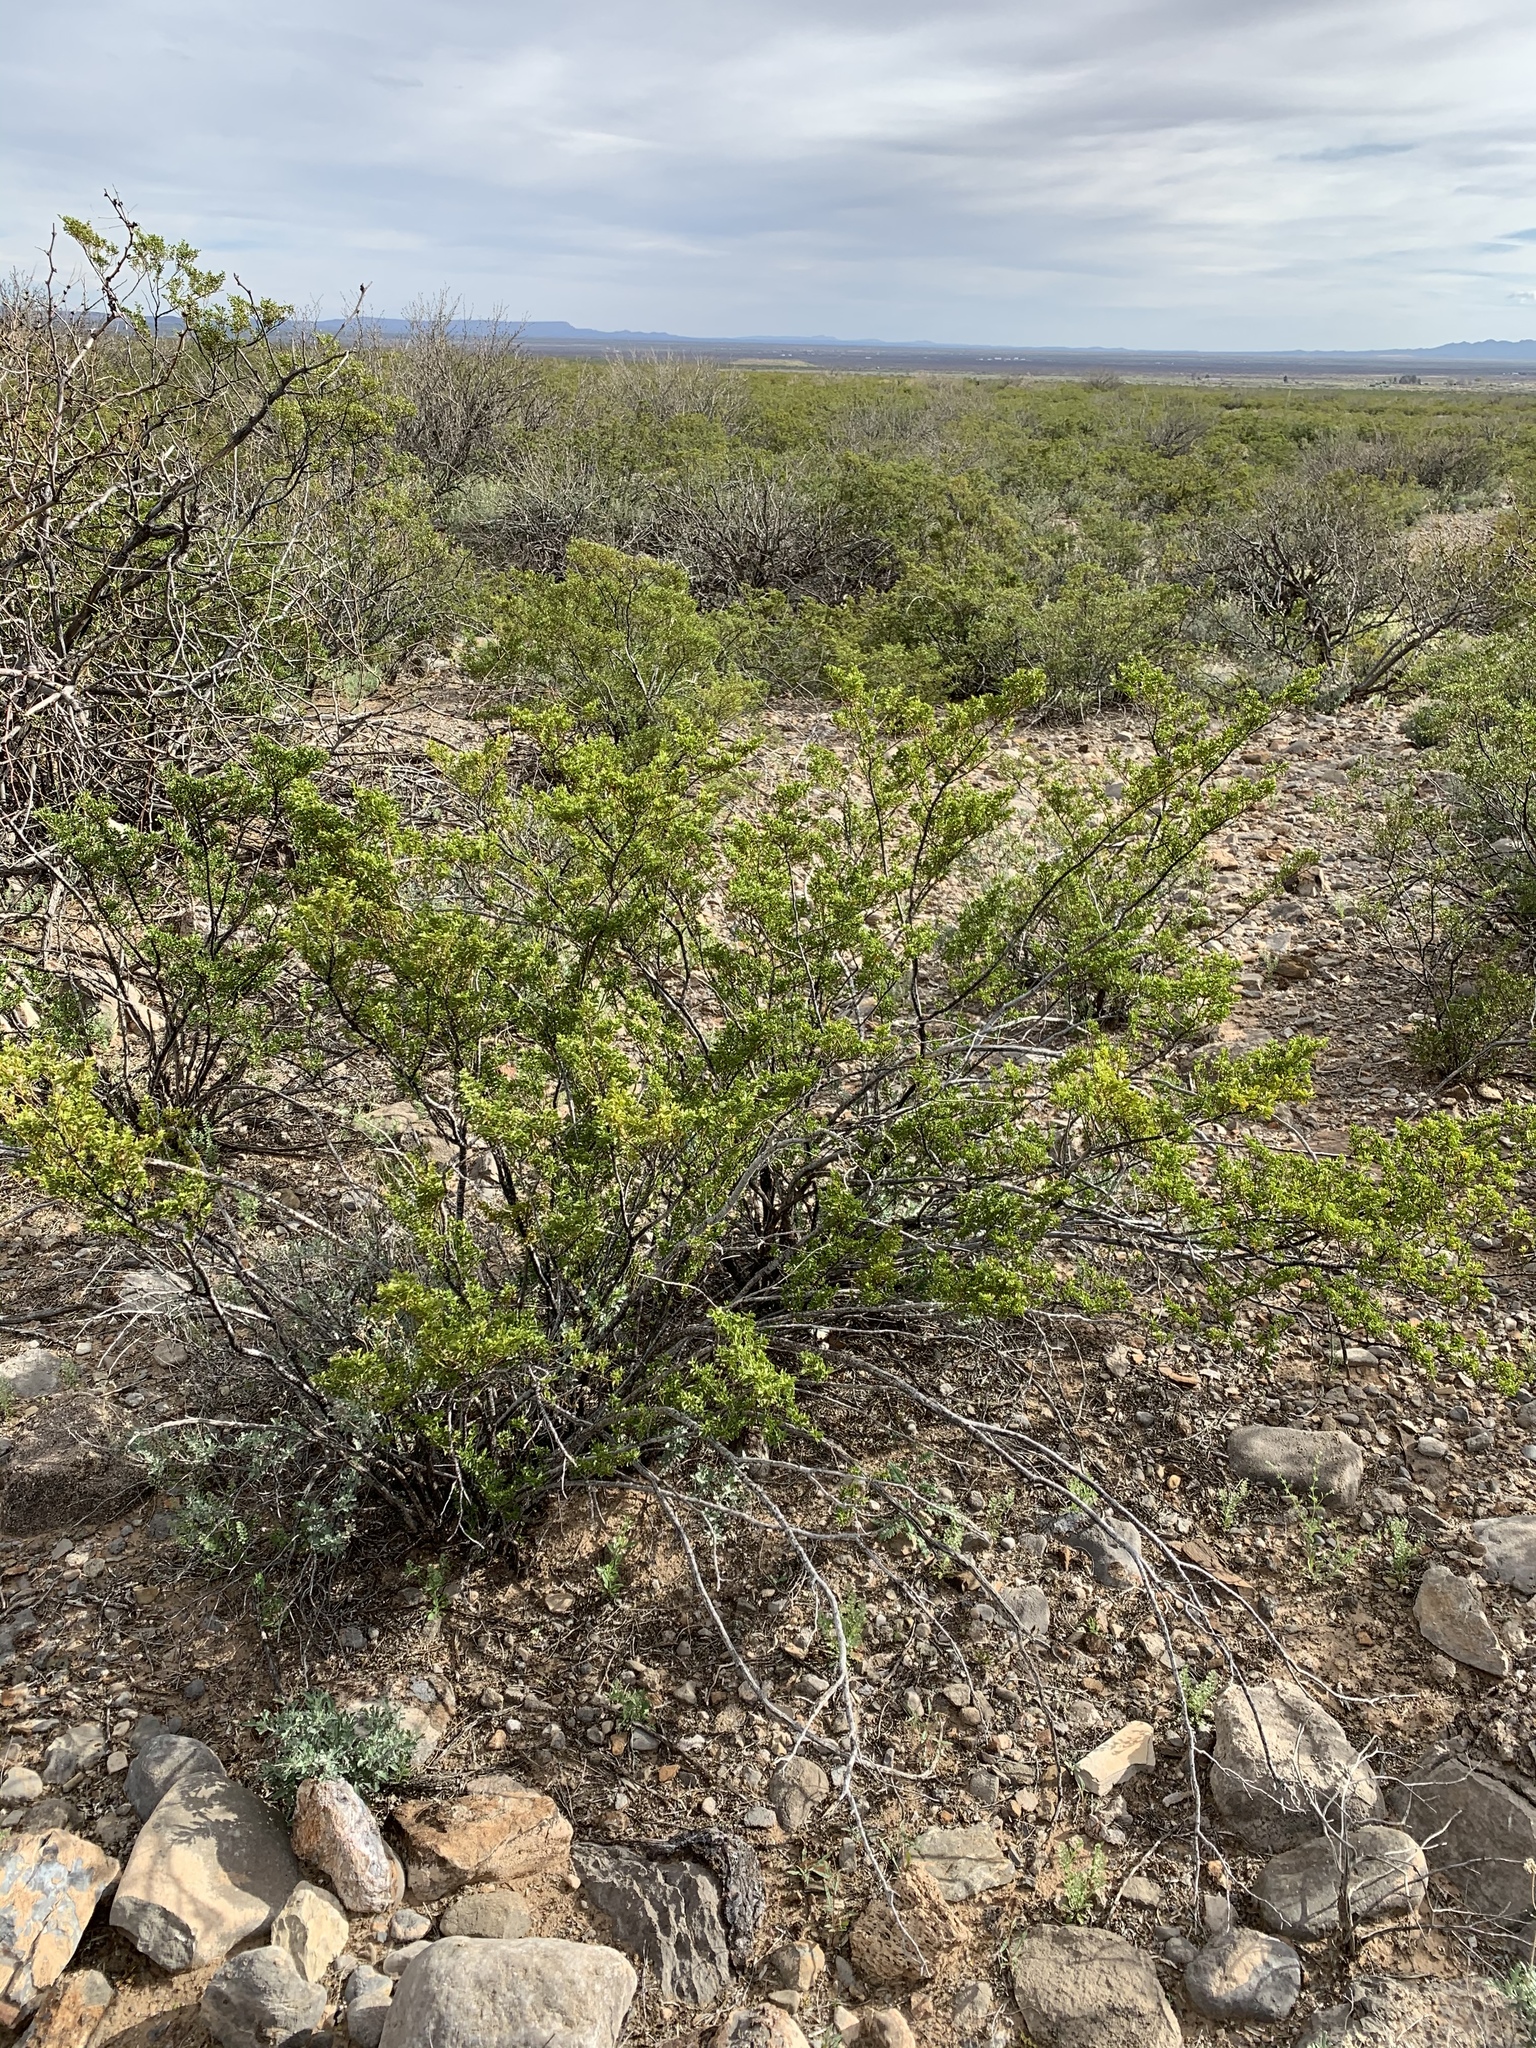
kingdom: Plantae
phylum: Tracheophyta
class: Magnoliopsida
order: Zygophyllales
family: Zygophyllaceae
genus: Larrea
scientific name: Larrea tridentata
